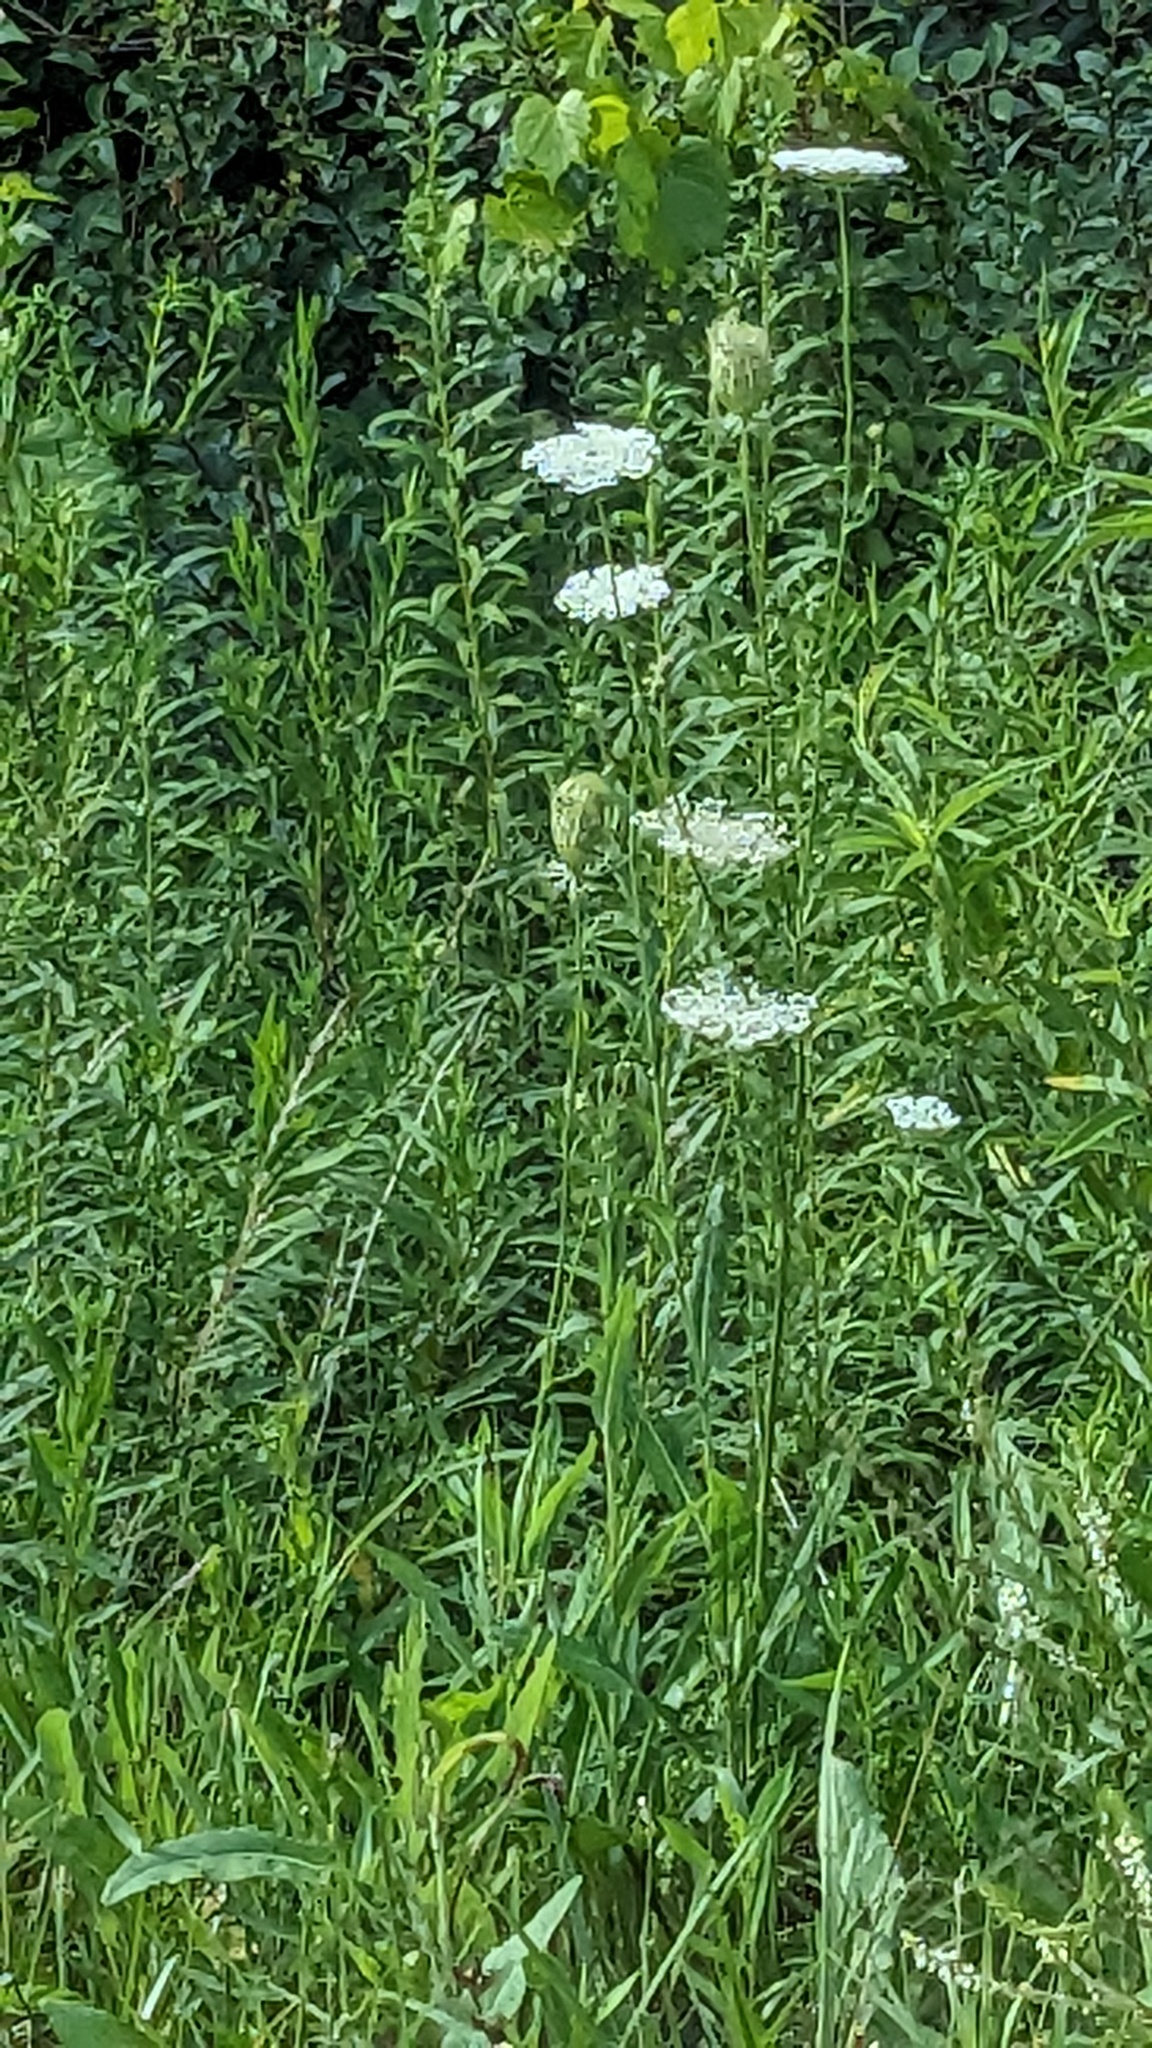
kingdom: Plantae
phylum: Tracheophyta
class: Magnoliopsida
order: Apiales
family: Apiaceae
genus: Daucus
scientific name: Daucus carota
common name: Wild carrot
